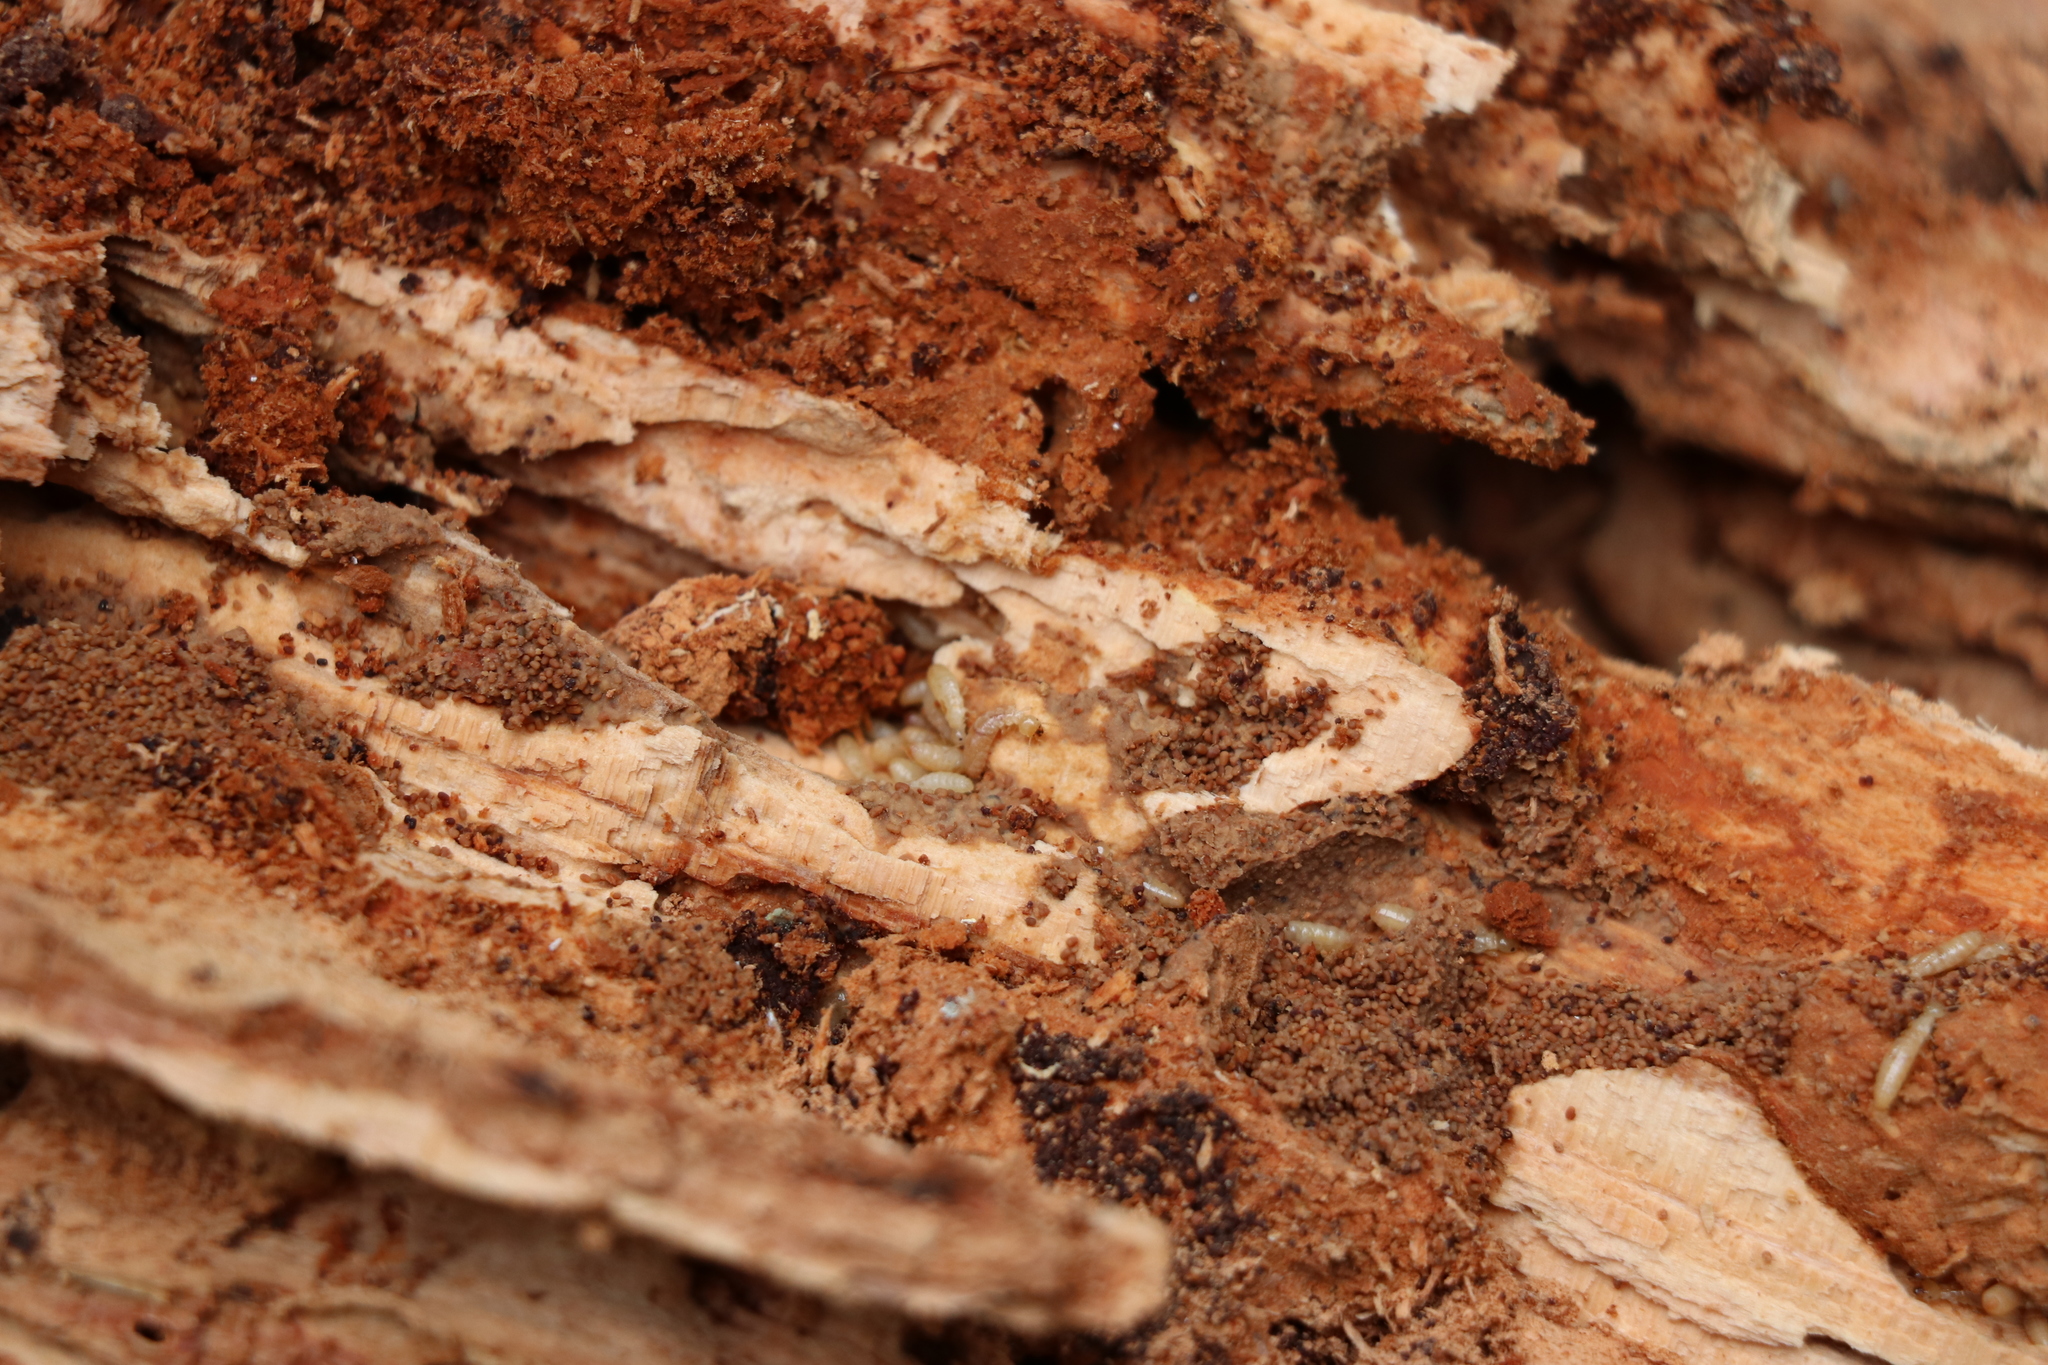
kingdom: Animalia
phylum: Arthropoda
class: Insecta
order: Blattodea
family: Stolotermitidae
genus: Stolotermes
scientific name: Stolotermes ruficeps
